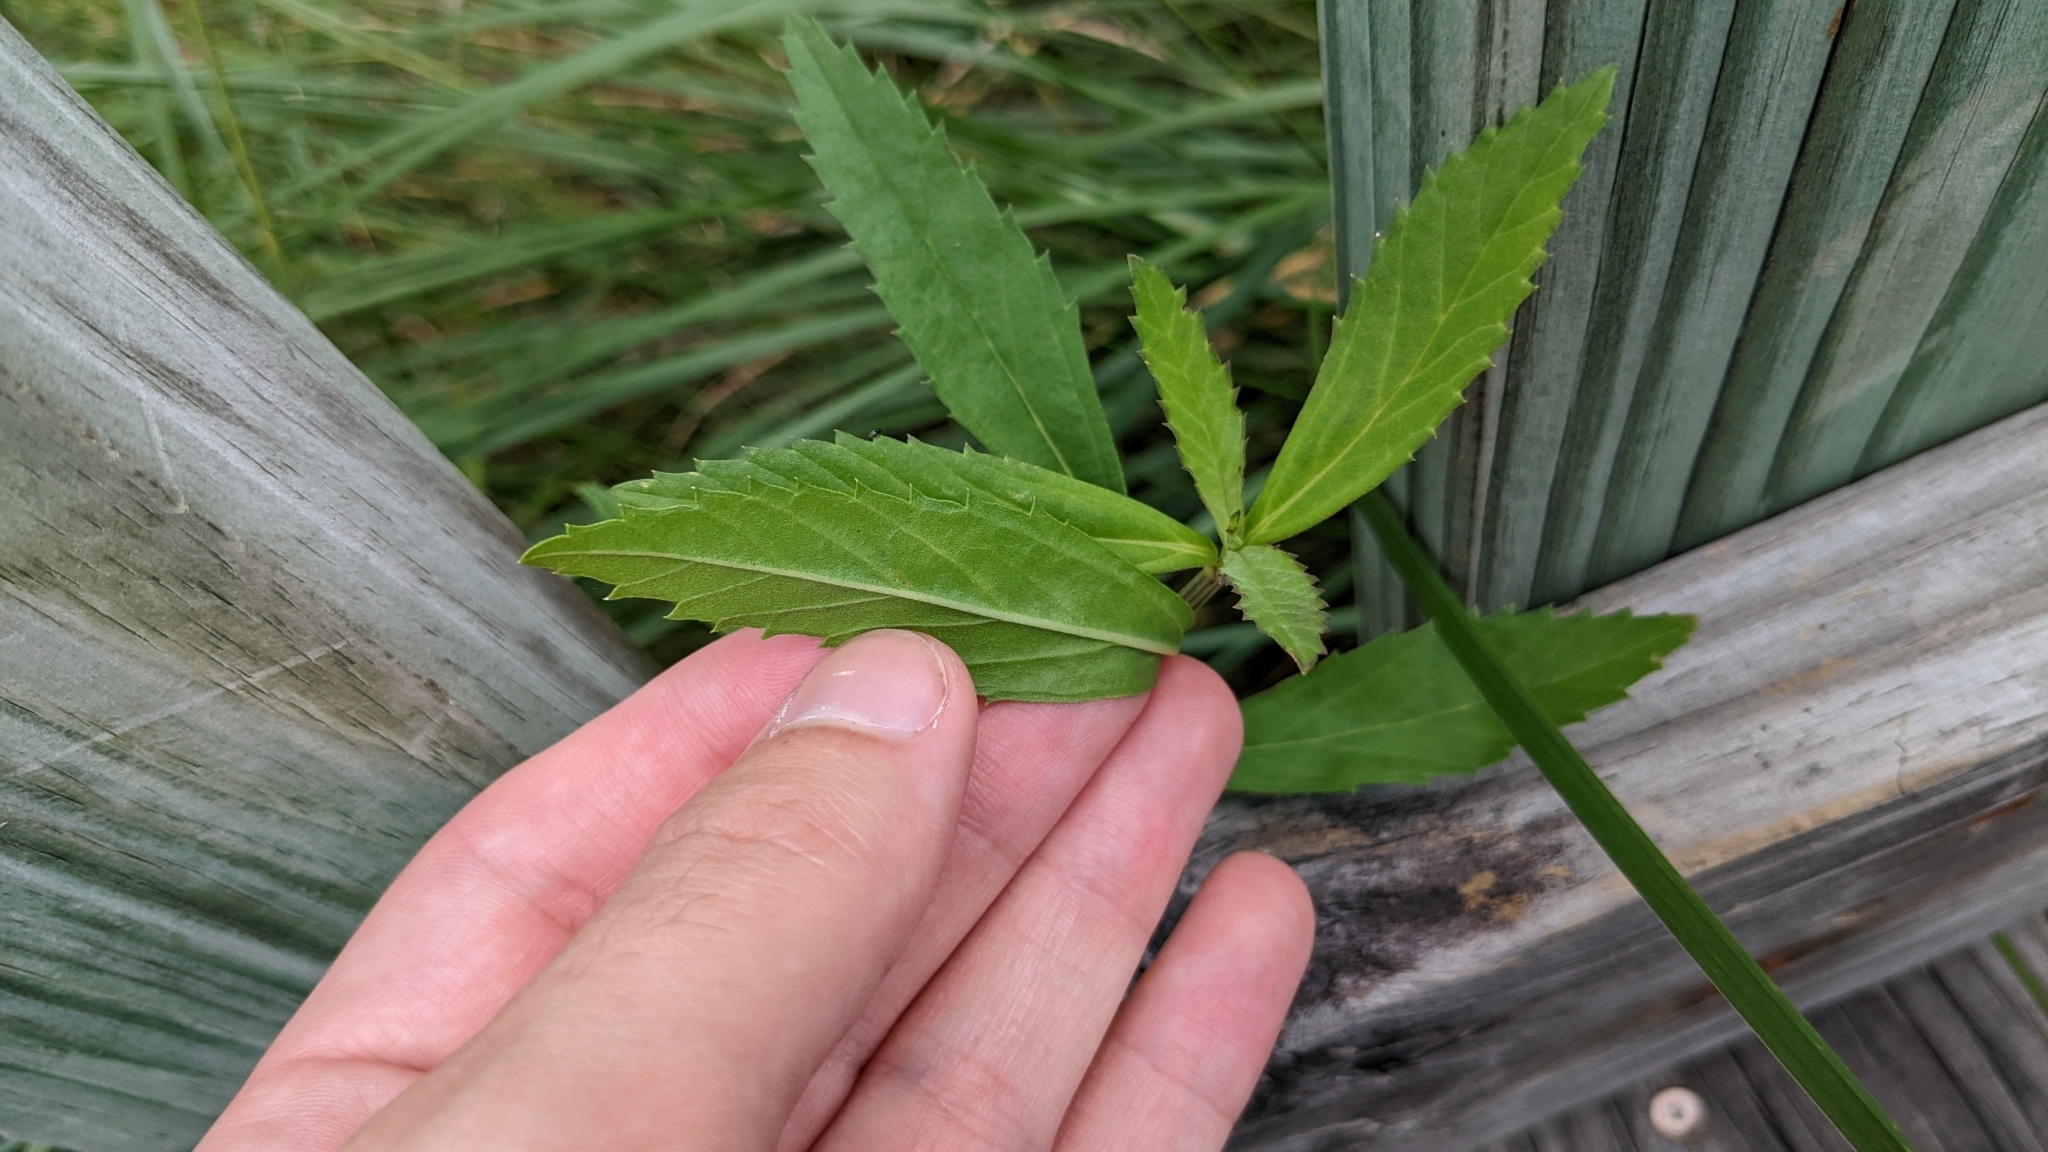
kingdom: Plantae
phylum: Tracheophyta
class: Magnoliopsida
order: Lamiales
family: Verbenaceae
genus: Phyla
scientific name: Phyla lanceolata
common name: Northern fogfruit
